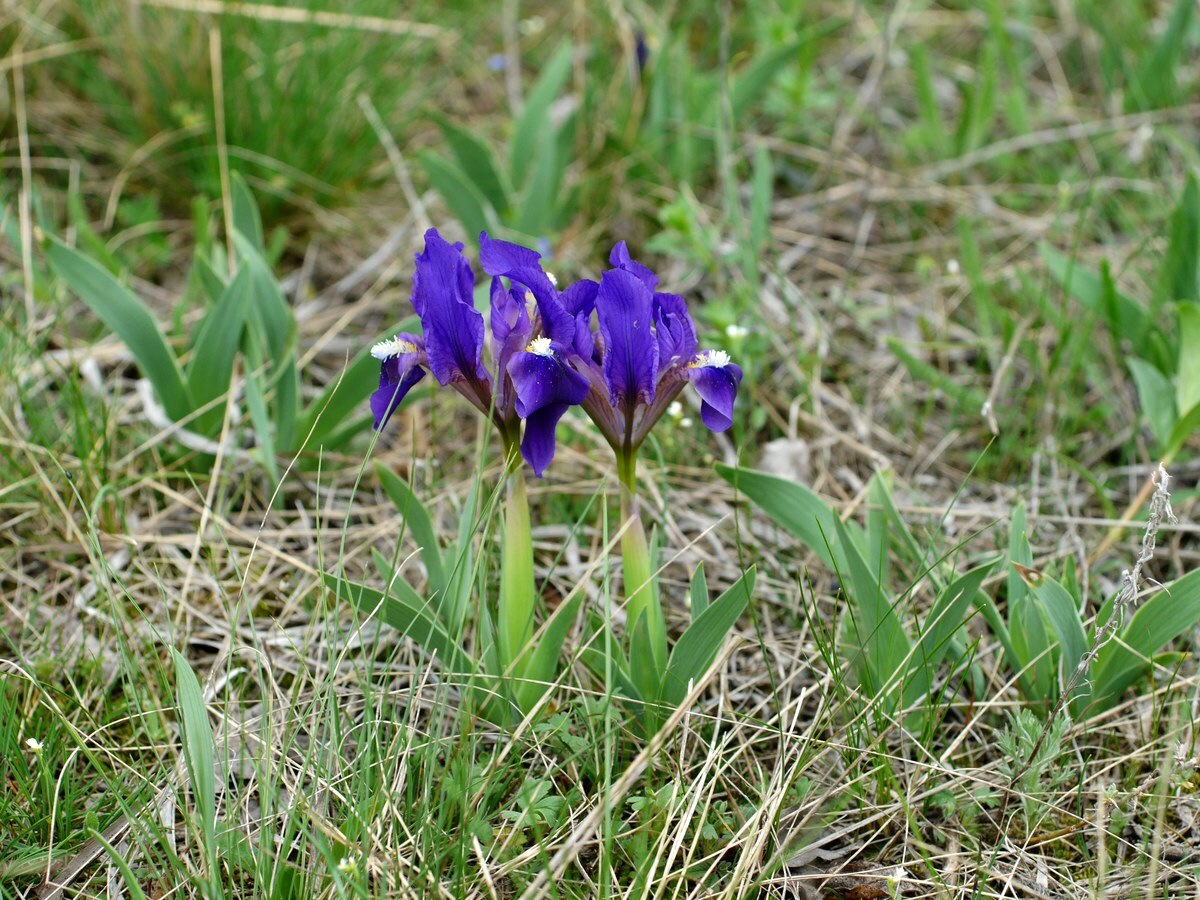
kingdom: Plantae
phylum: Tracheophyta
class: Liliopsida
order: Asparagales
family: Iridaceae
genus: Iris
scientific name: Iris pumila
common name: Dwarf iris
